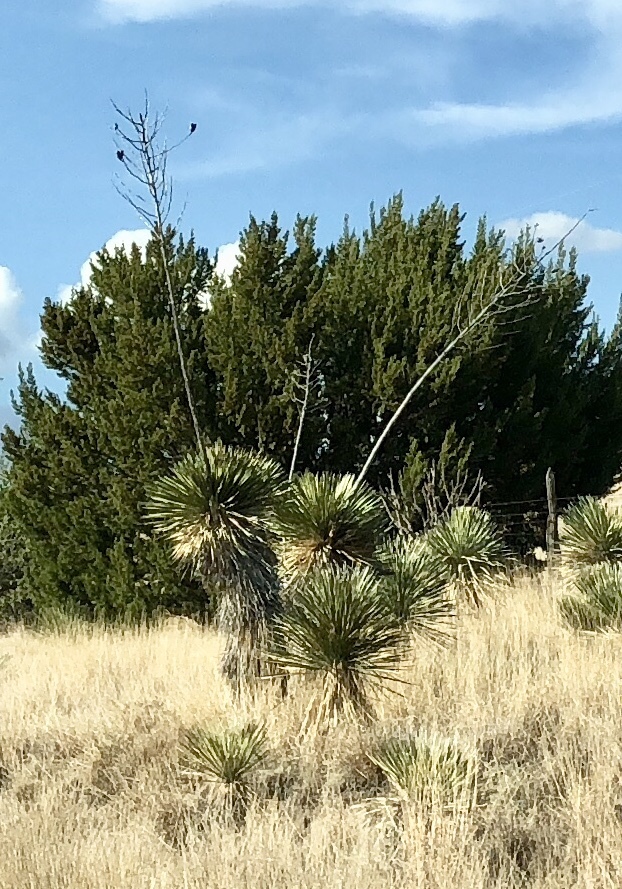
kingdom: Plantae
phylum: Tracheophyta
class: Liliopsida
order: Asparagales
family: Asparagaceae
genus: Yucca
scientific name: Yucca elata
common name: Palmella
